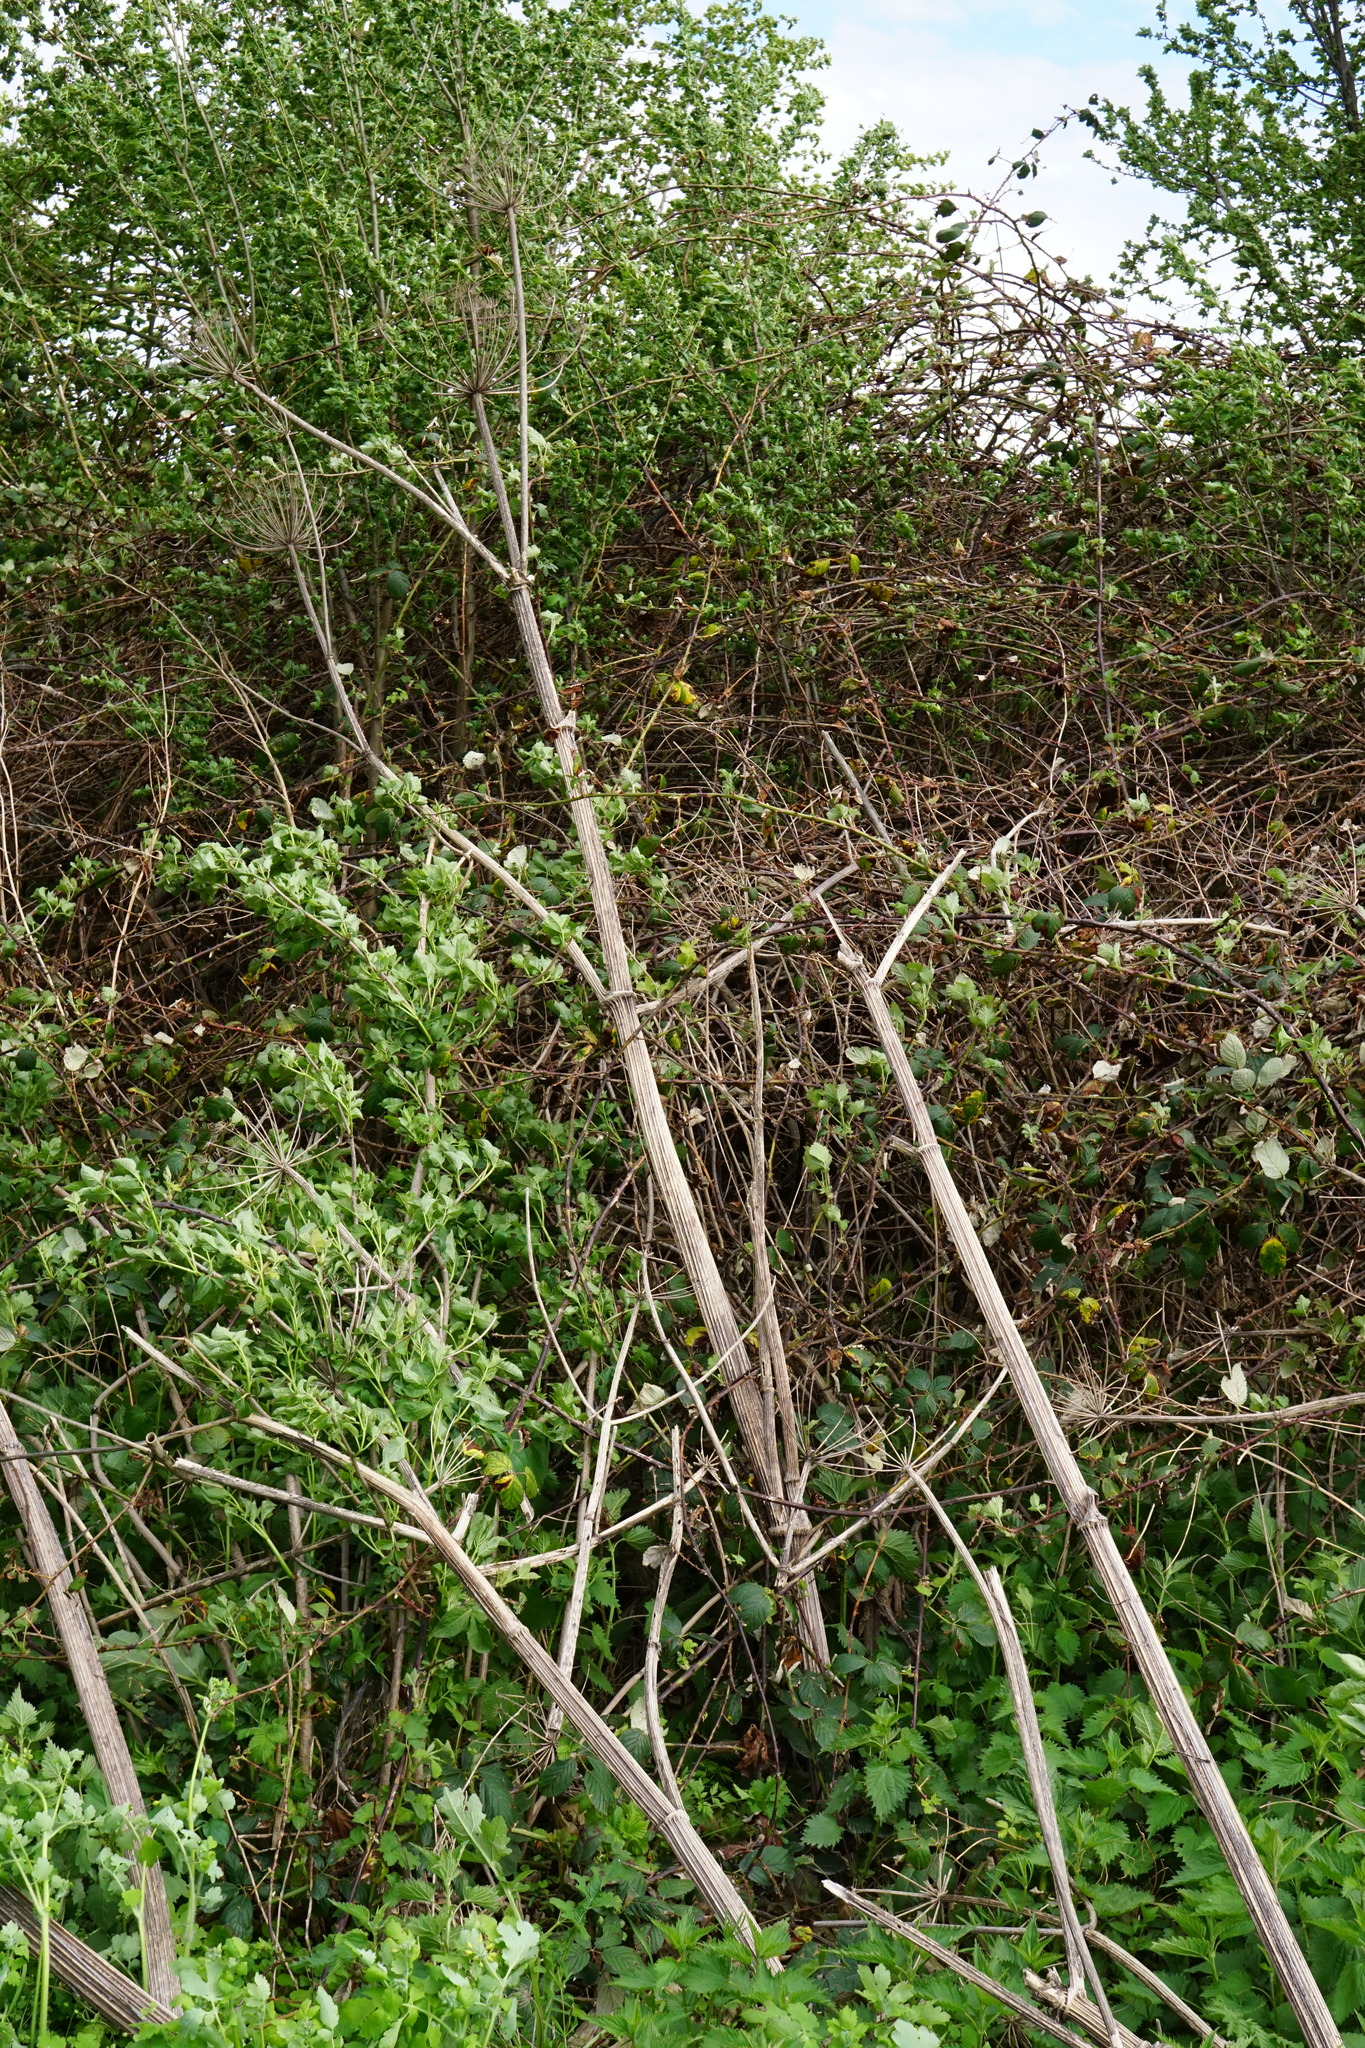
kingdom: Plantae
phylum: Tracheophyta
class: Magnoliopsida
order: Apiales
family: Apiaceae
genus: Heracleum
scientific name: Heracleum mantegazzianum
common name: Giant hogweed
